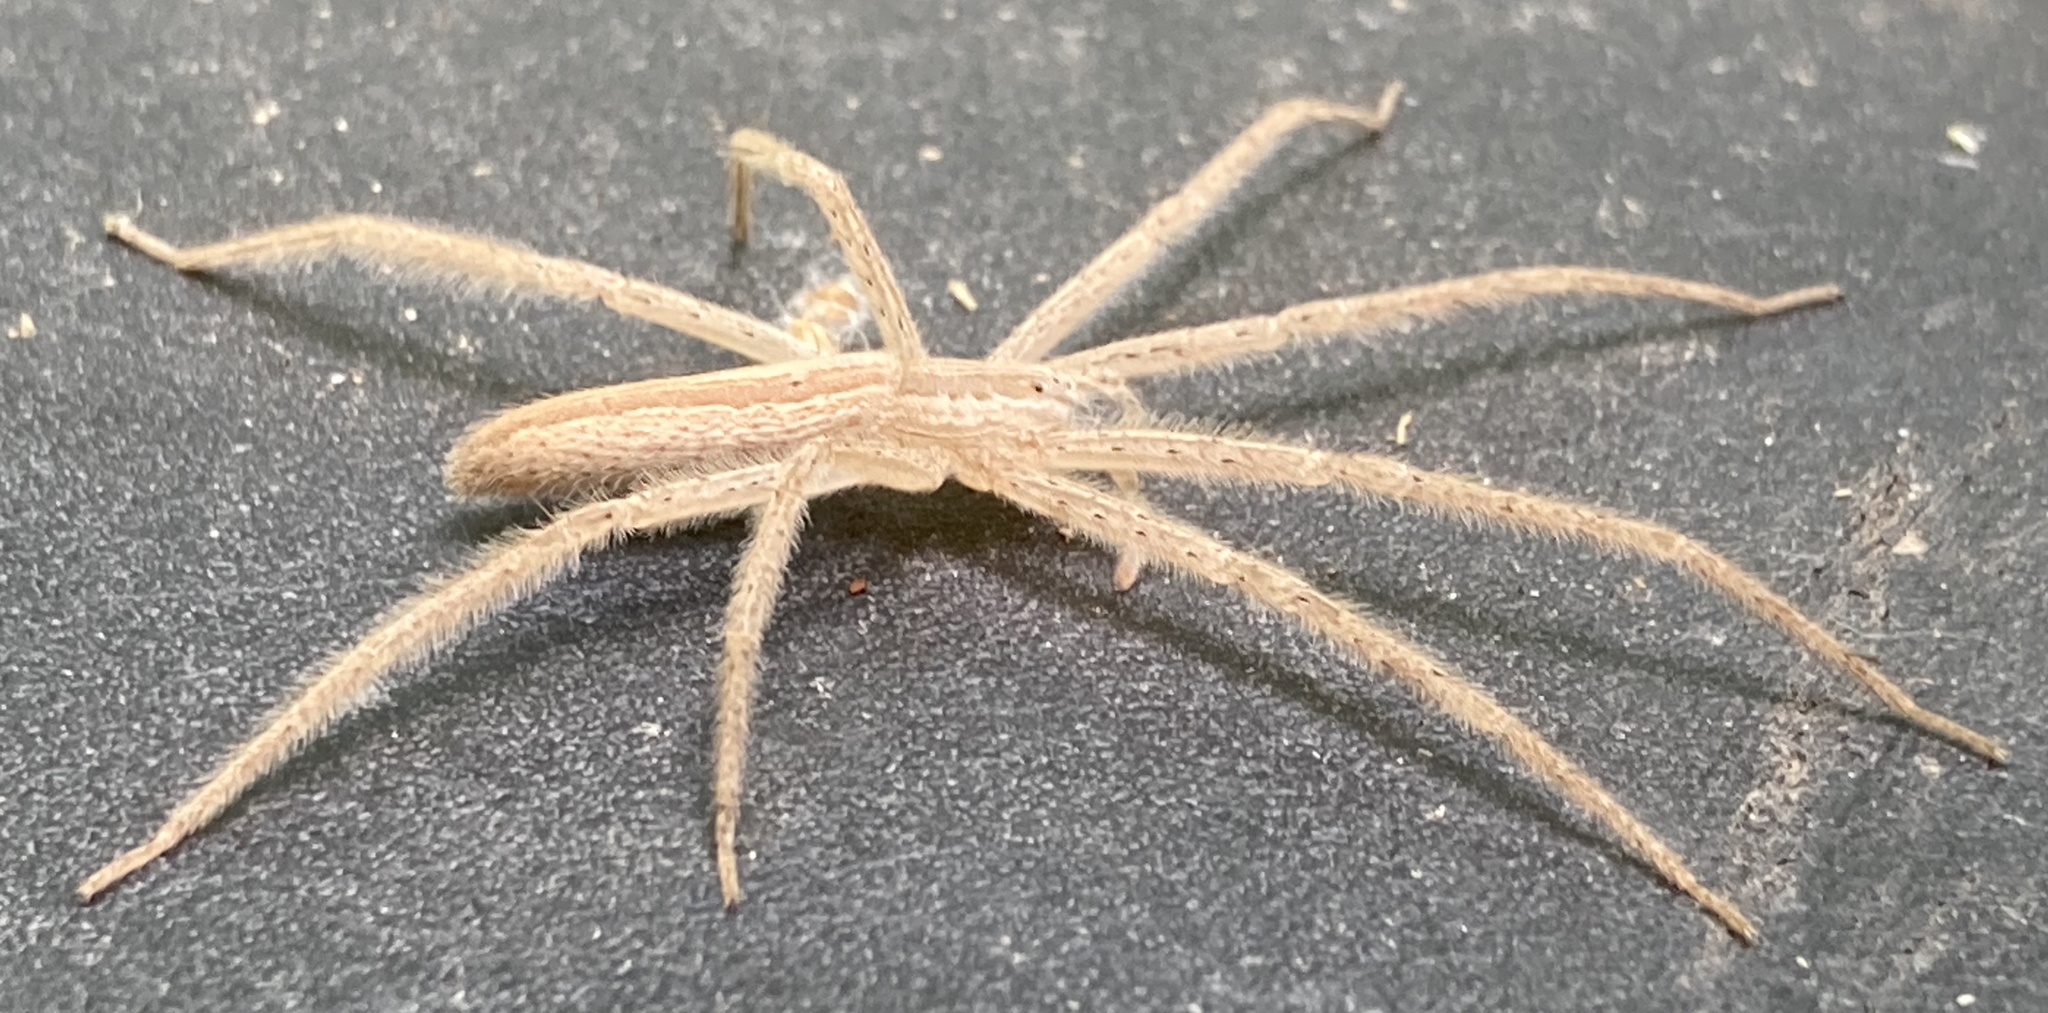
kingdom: Animalia
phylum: Arthropoda
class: Arachnida
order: Araneae
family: Pisauridae
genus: Pisaurina
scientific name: Pisaurina undulata
